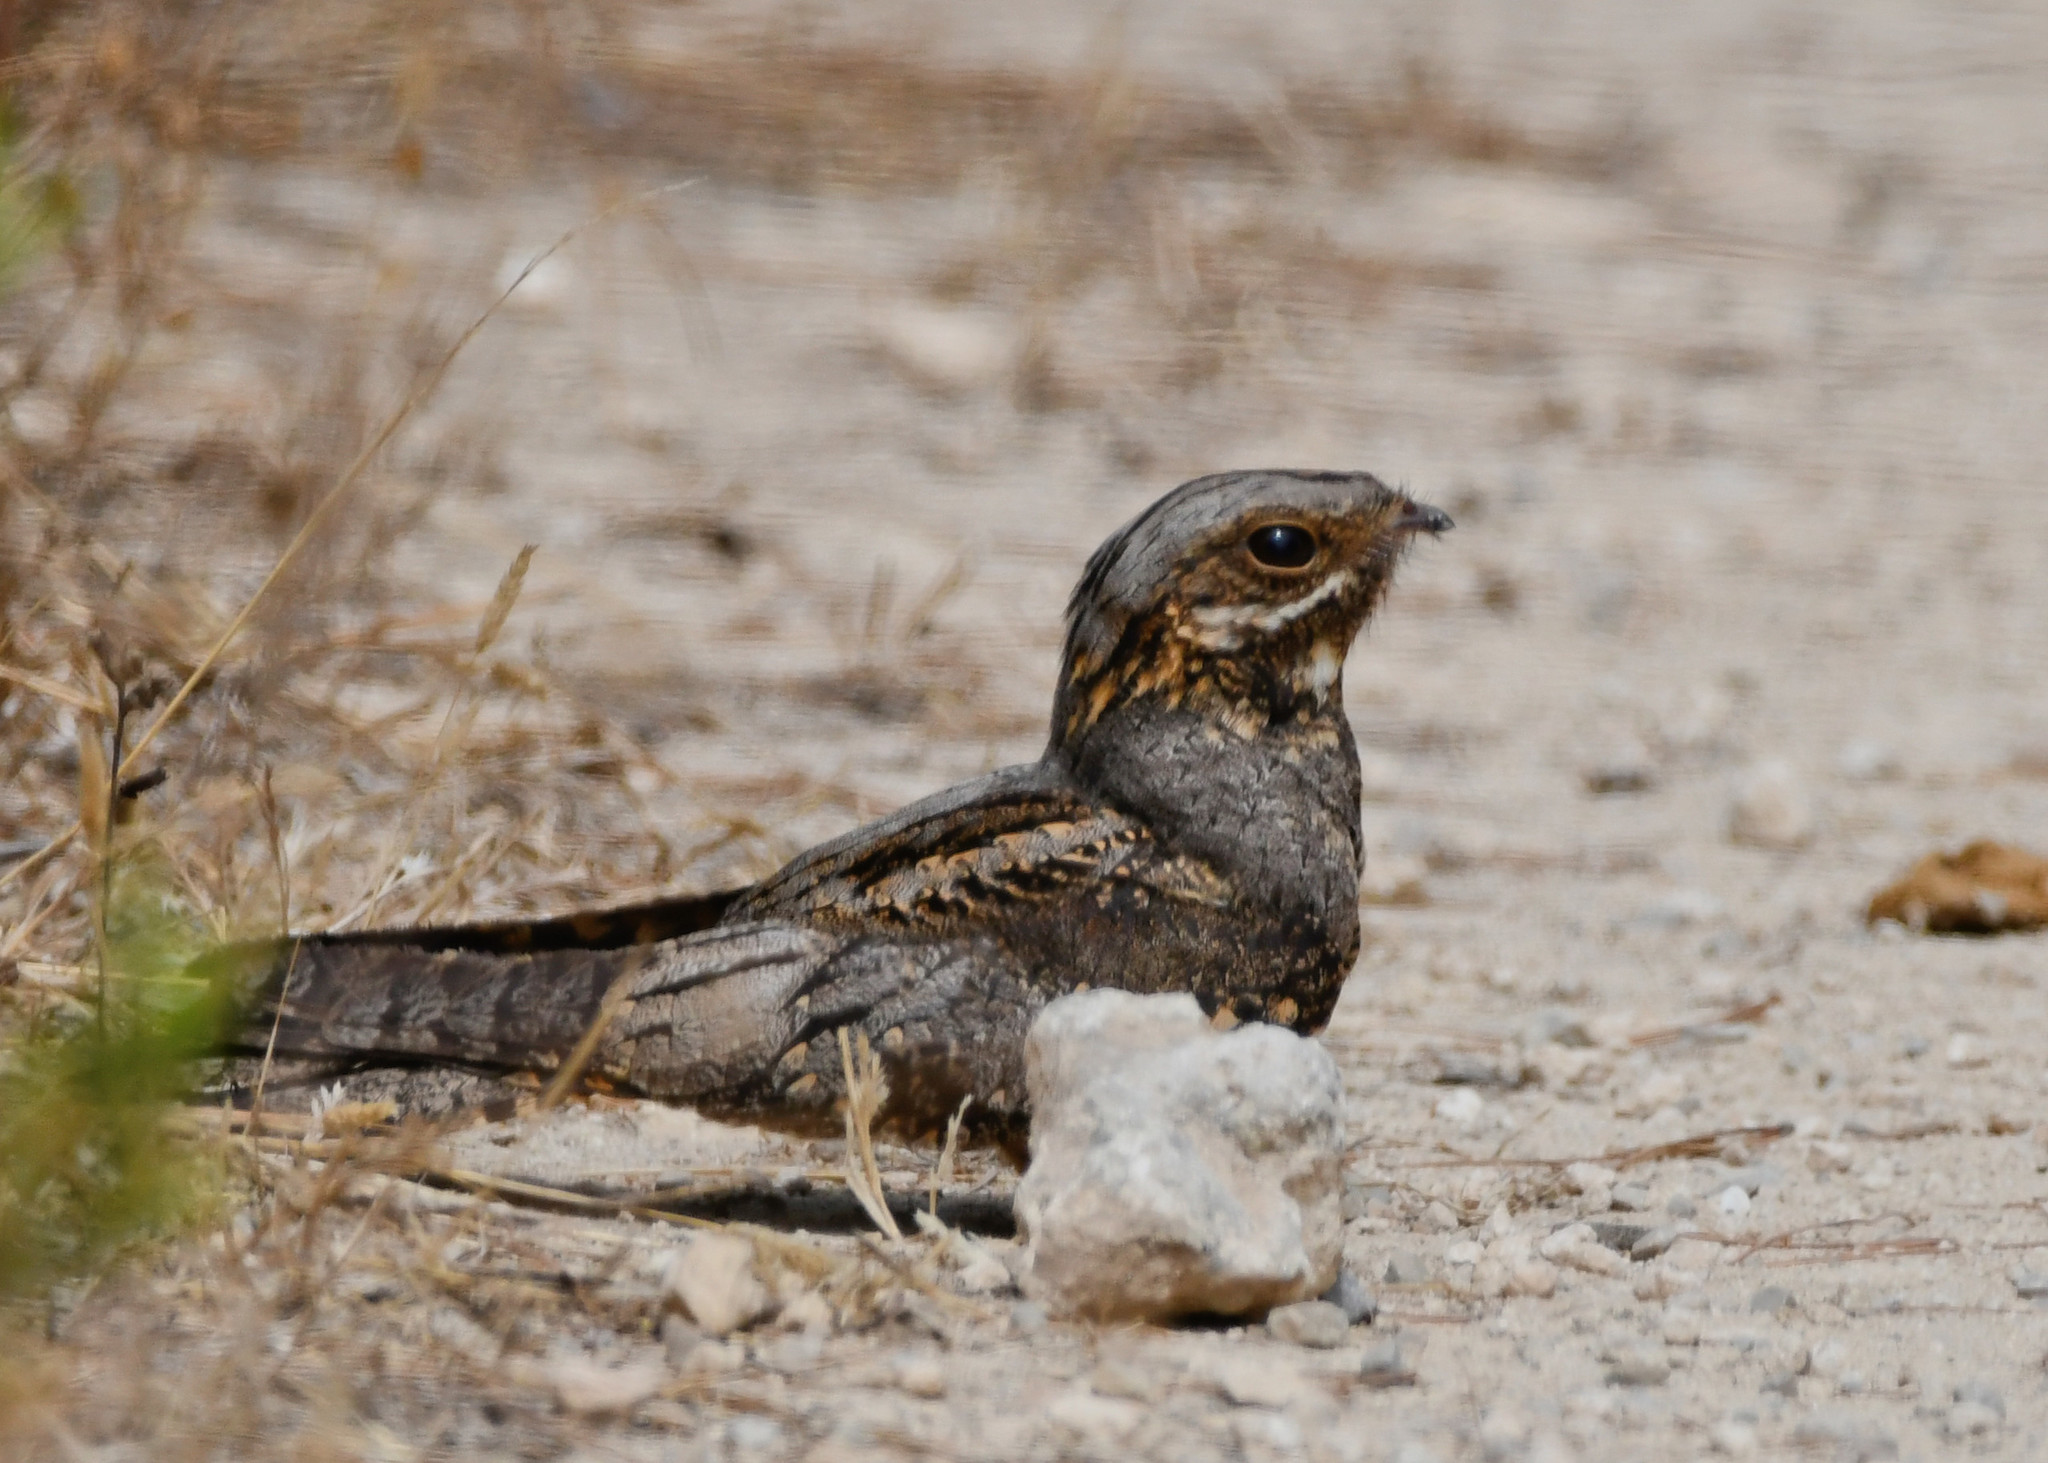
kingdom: Animalia
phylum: Chordata
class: Aves
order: Caprimulgiformes
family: Caprimulgidae
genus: Caprimulgus
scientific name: Caprimulgus europaeus
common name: European nightjar
